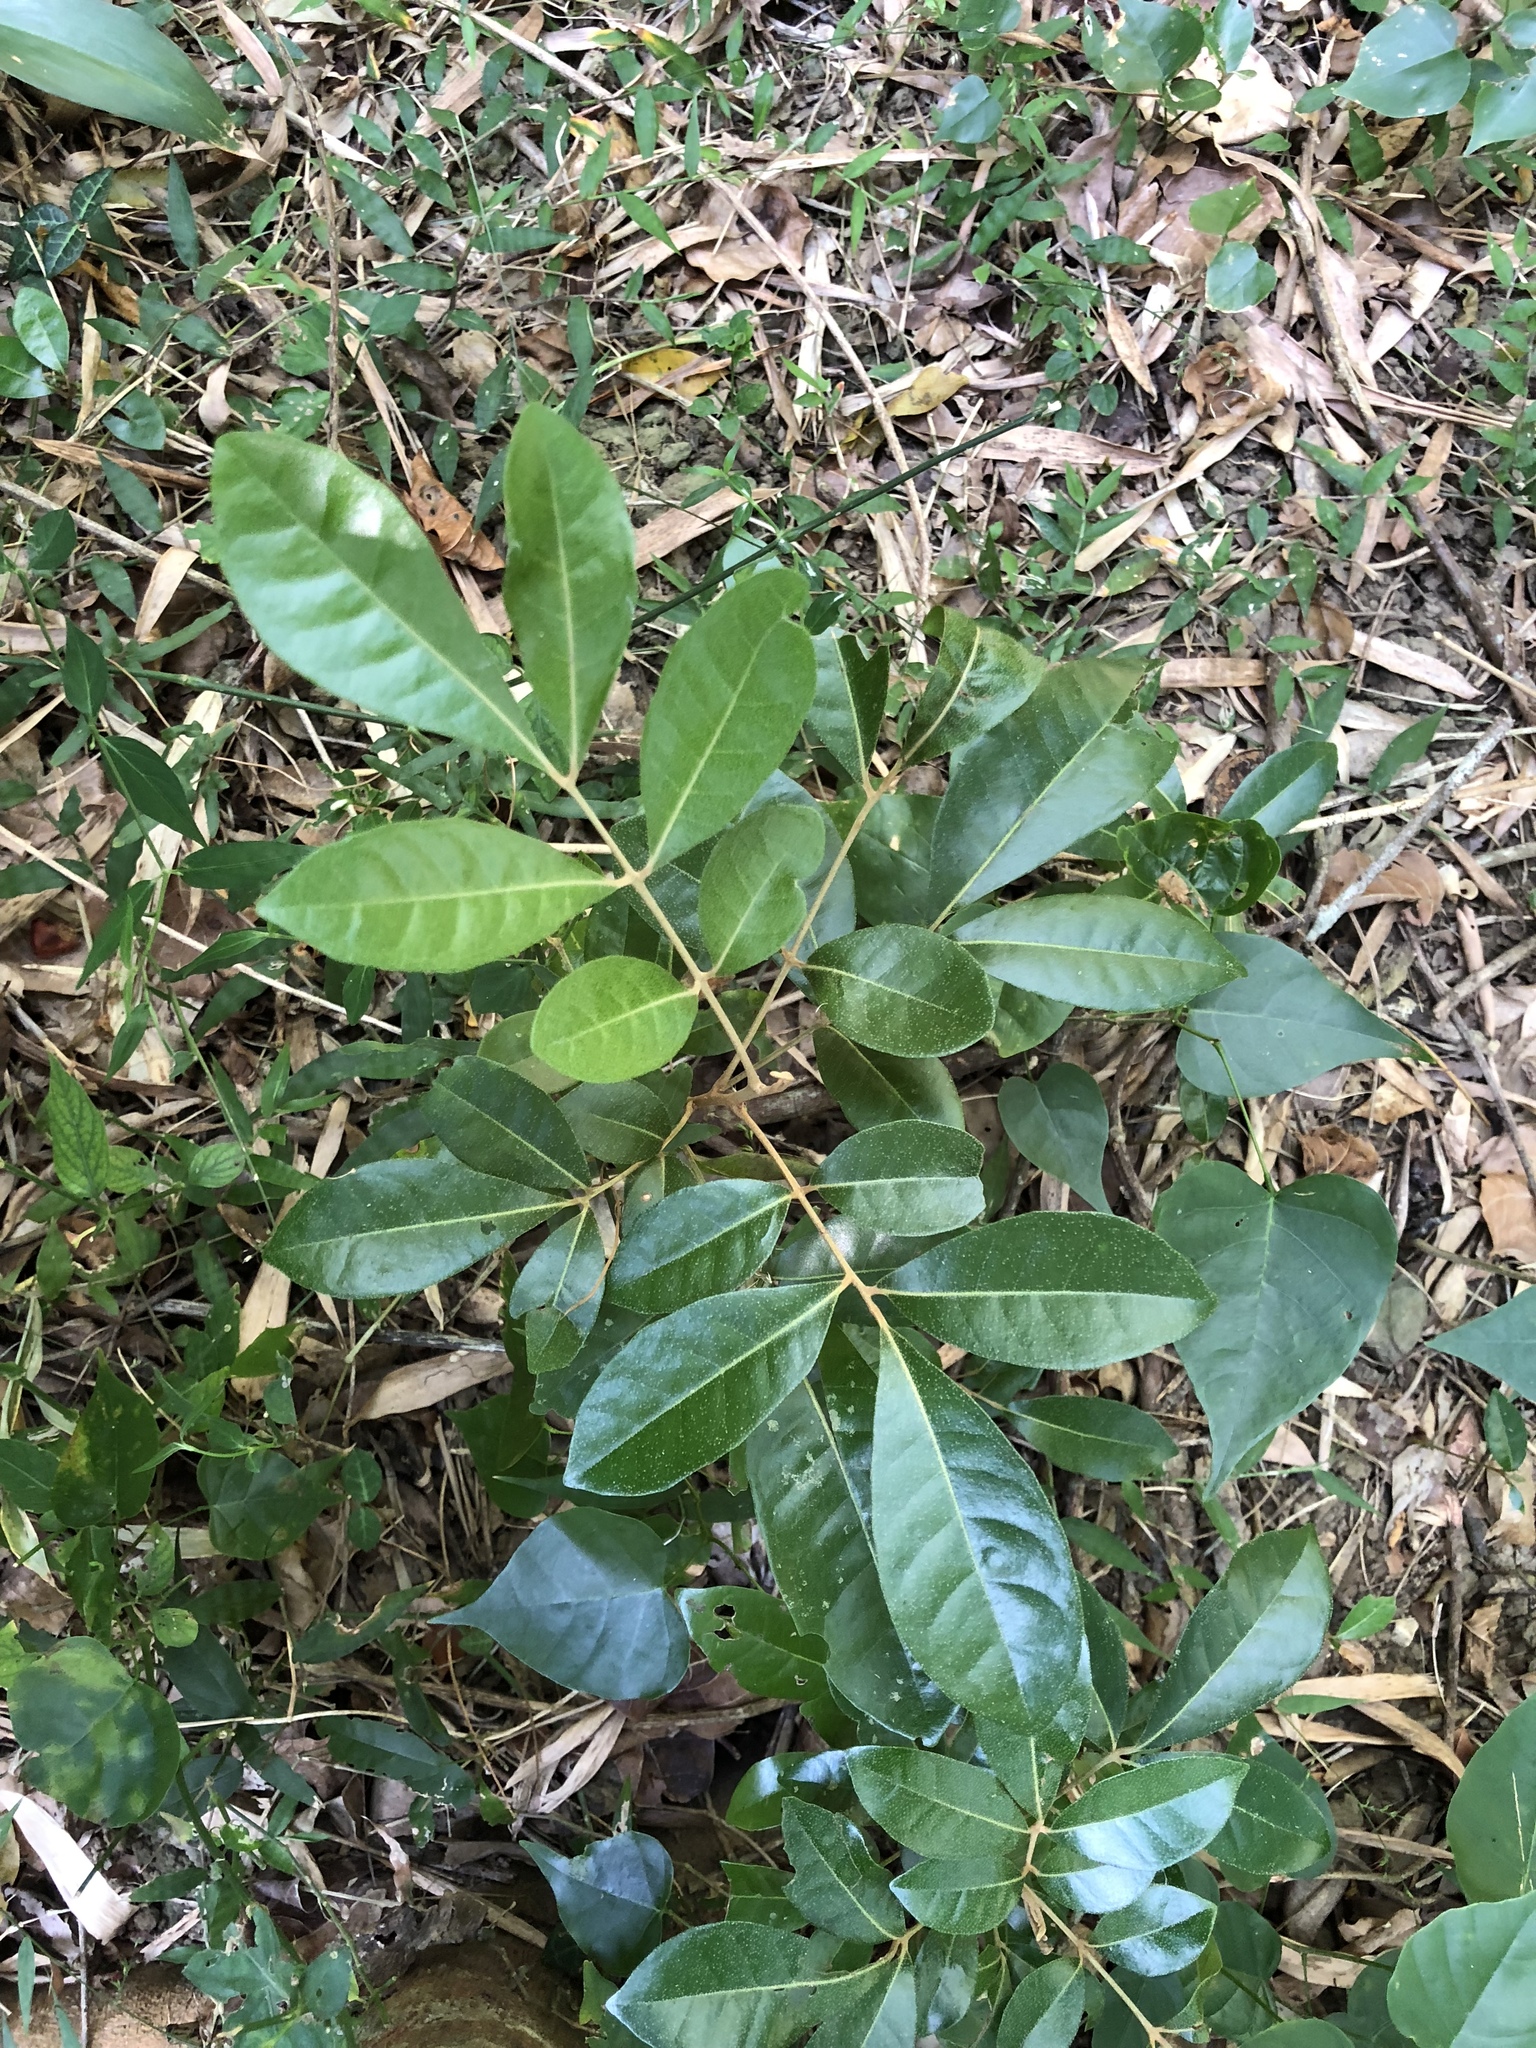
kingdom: Plantae
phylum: Tracheophyta
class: Magnoliopsida
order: Sapindales
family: Meliaceae
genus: Aglaia
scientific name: Aglaia elaeagnoidea
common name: Droopyleaf
